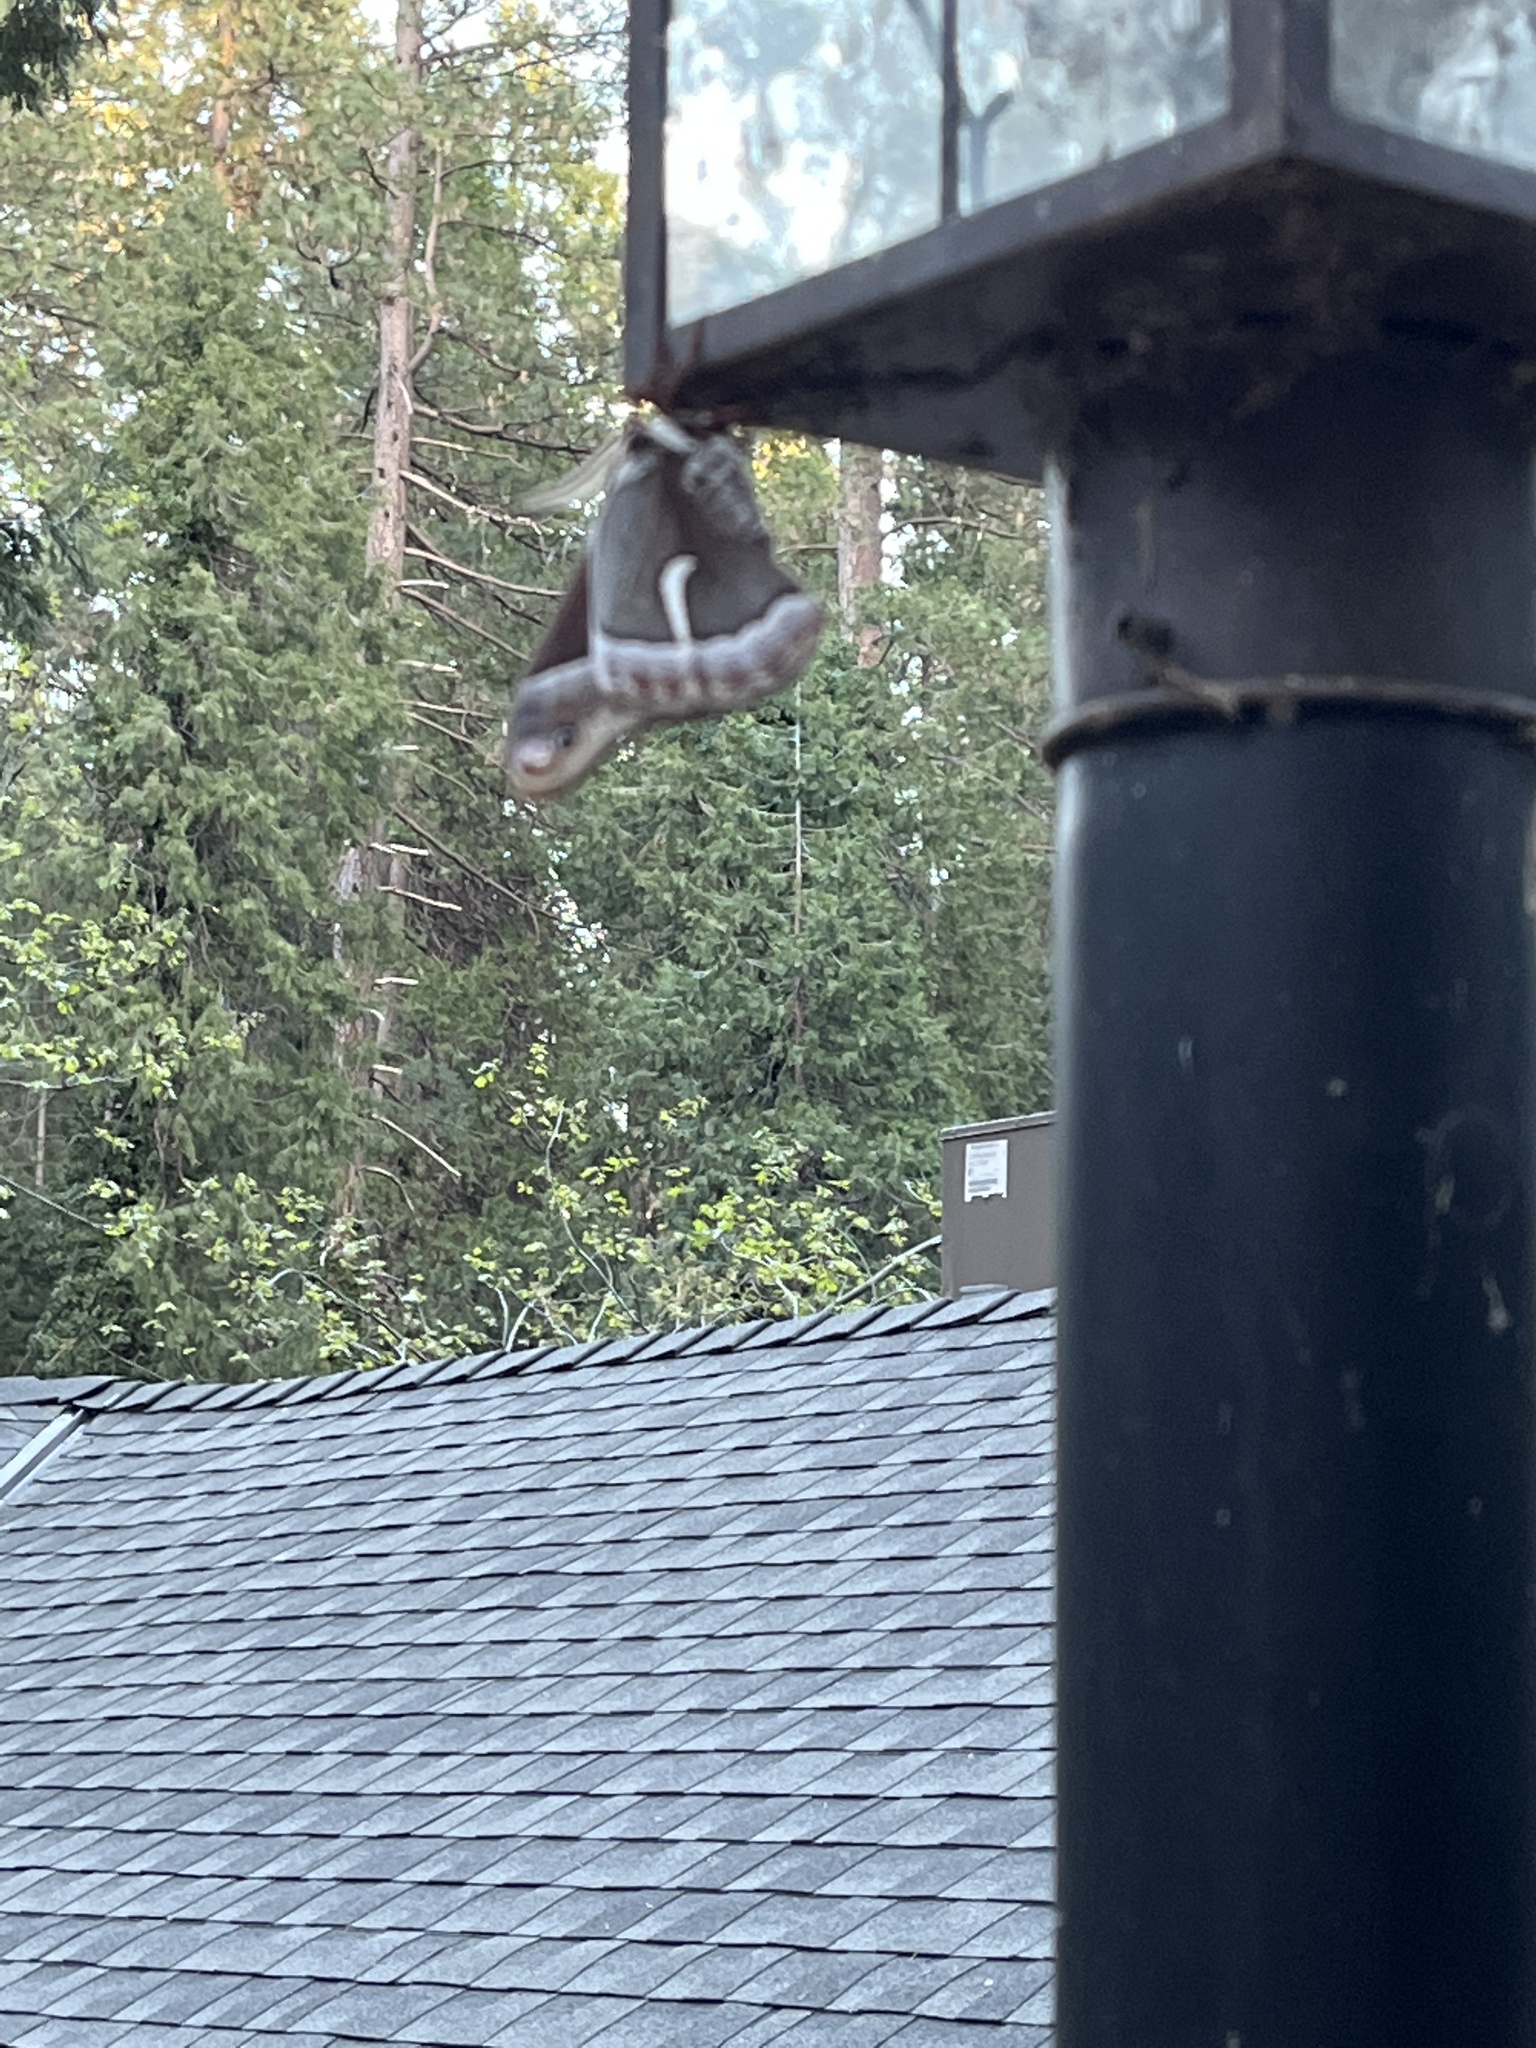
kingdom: Animalia
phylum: Arthropoda
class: Insecta
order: Lepidoptera
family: Saturniidae
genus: Hyalophora
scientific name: Hyalophora euryalus
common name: Ceanothus silkmoth
